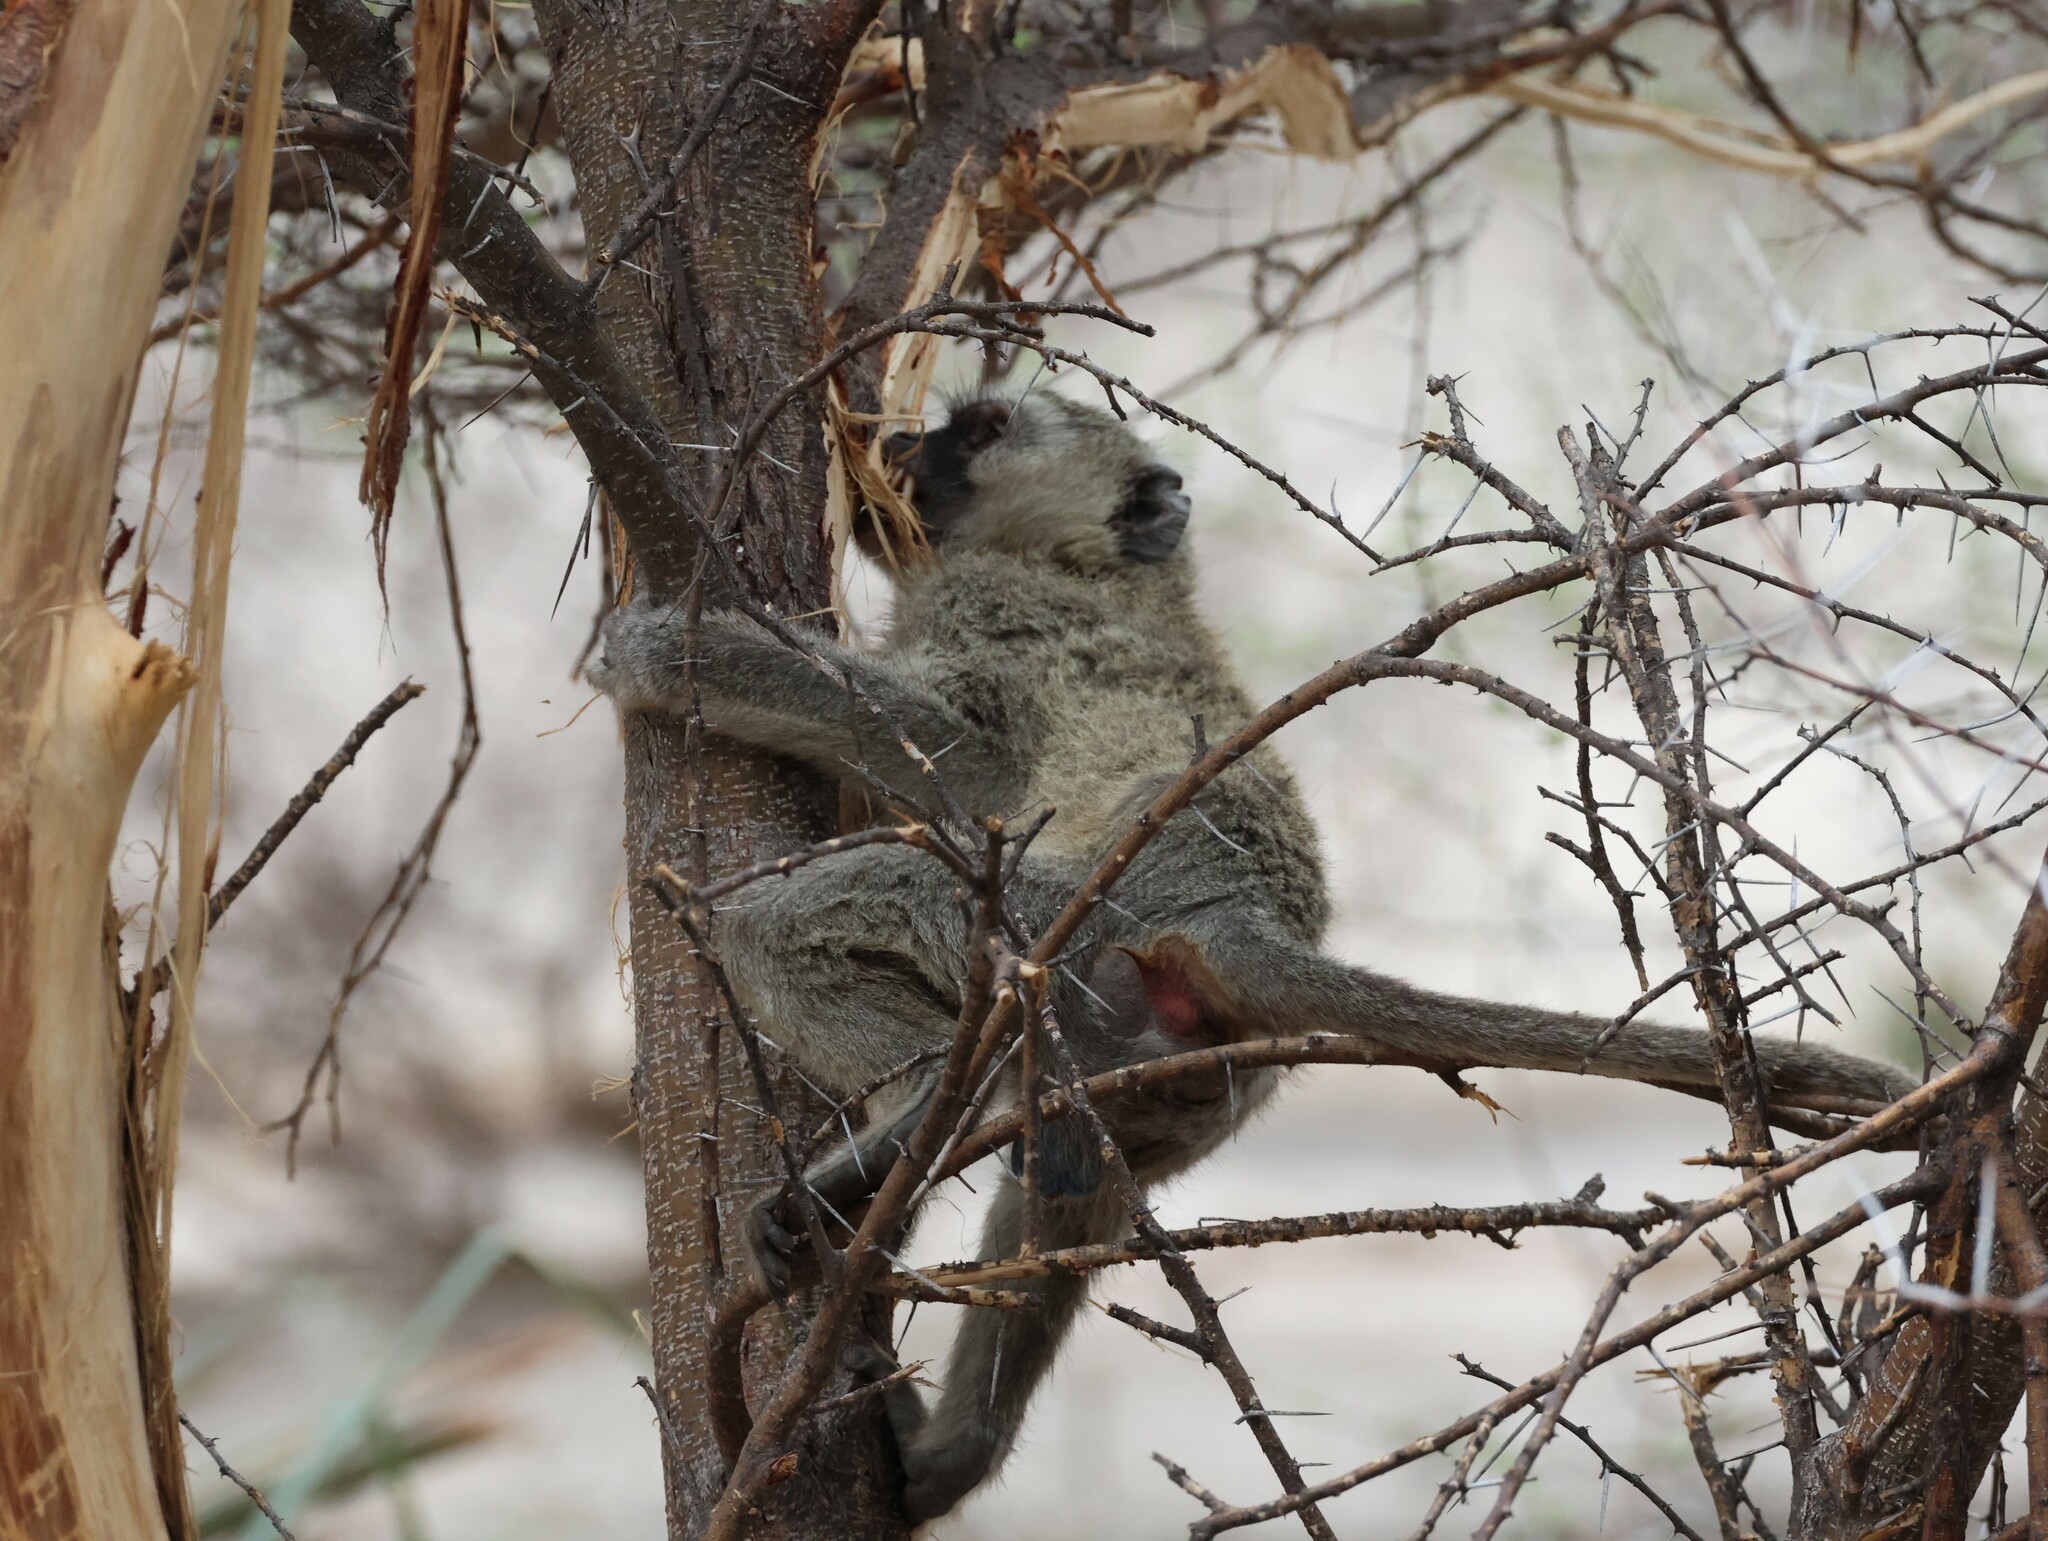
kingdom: Animalia
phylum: Chordata
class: Mammalia
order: Primates
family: Cercopithecidae
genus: Chlorocebus
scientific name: Chlorocebus pygerythrus
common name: Vervet monkey
